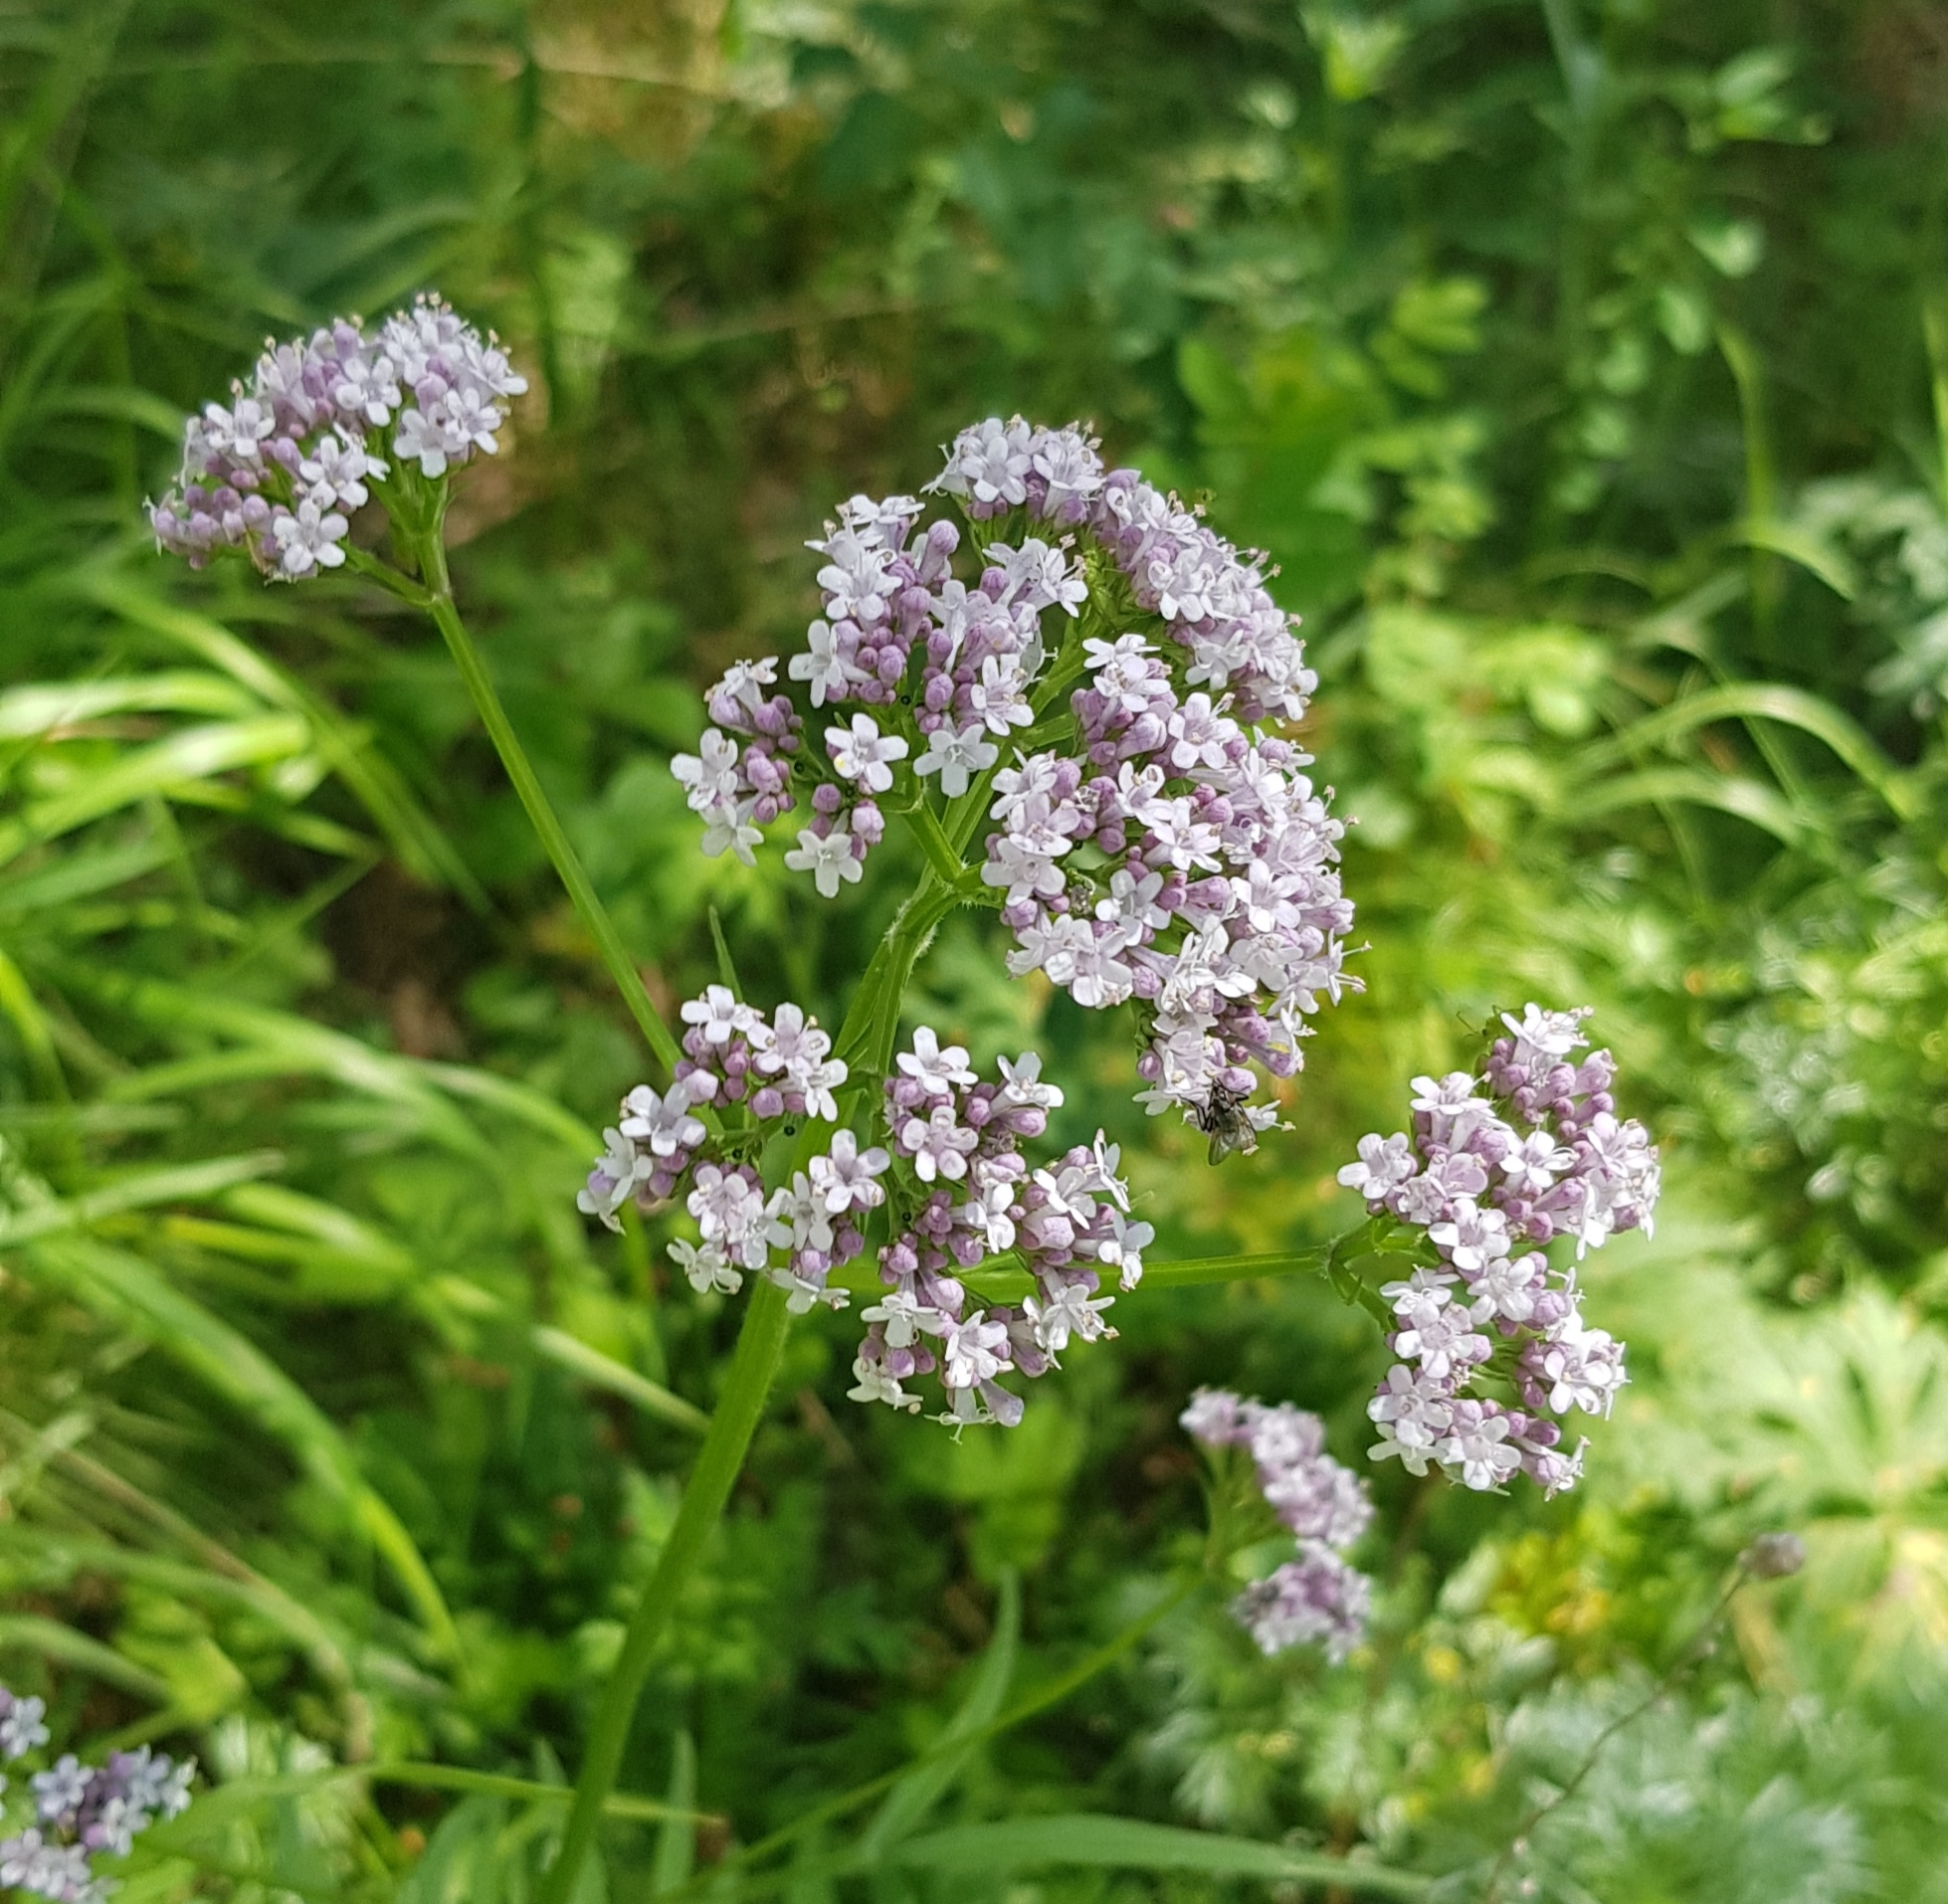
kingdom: Plantae
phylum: Tracheophyta
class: Magnoliopsida
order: Dipsacales
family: Caprifoliaceae
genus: Valeriana
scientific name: Valeriana officinalis
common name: Common valerian
